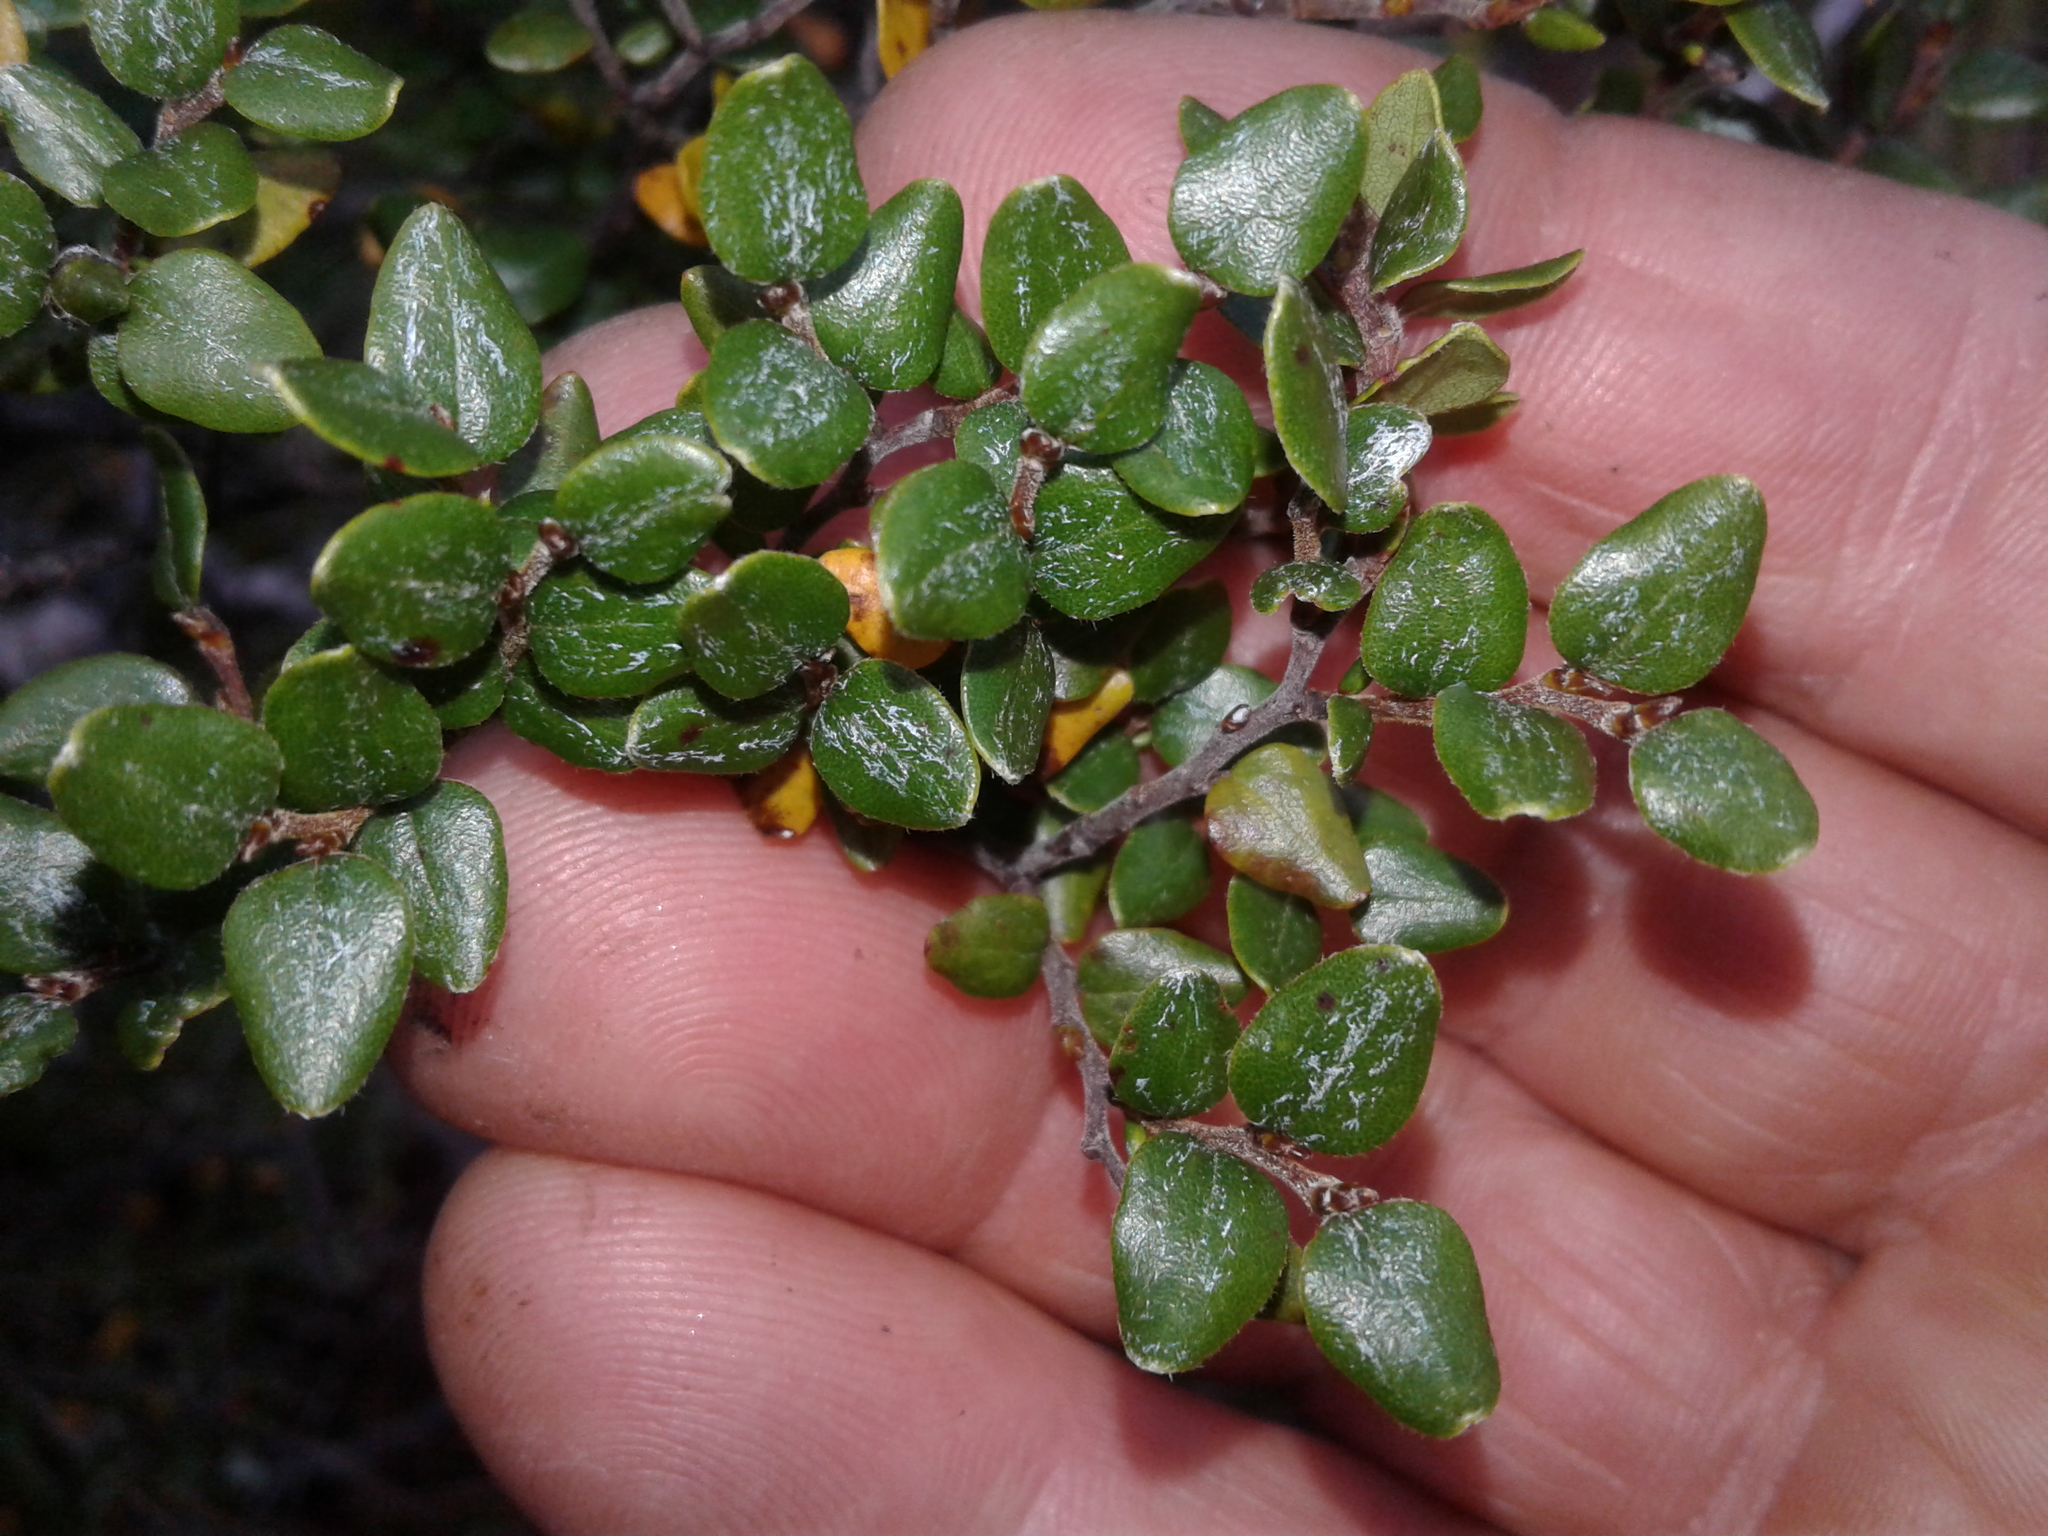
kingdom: Plantae
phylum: Tracheophyta
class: Magnoliopsida
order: Fagales
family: Nothofagaceae
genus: Nothofagus
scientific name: Nothofagus cliffortioides
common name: Mountain beech
